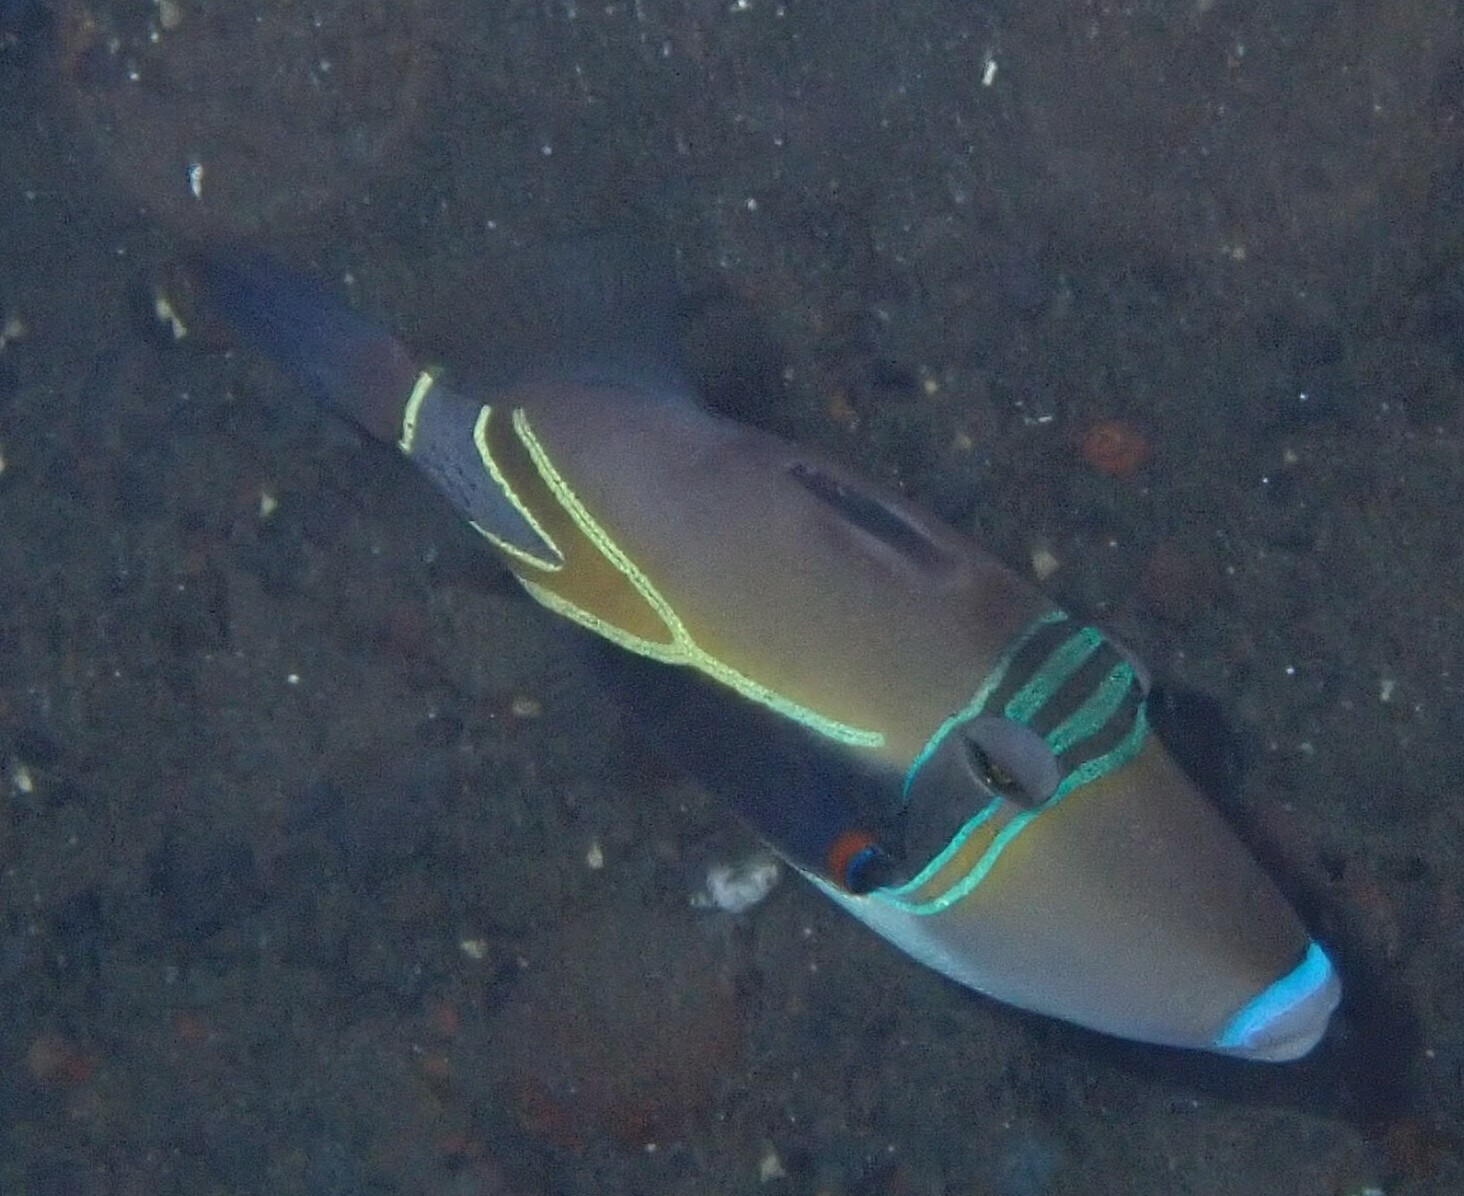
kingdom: Animalia
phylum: Chordata
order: Tetraodontiformes
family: Balistidae
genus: Rhinecanthus
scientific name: Rhinecanthus rectangulus
